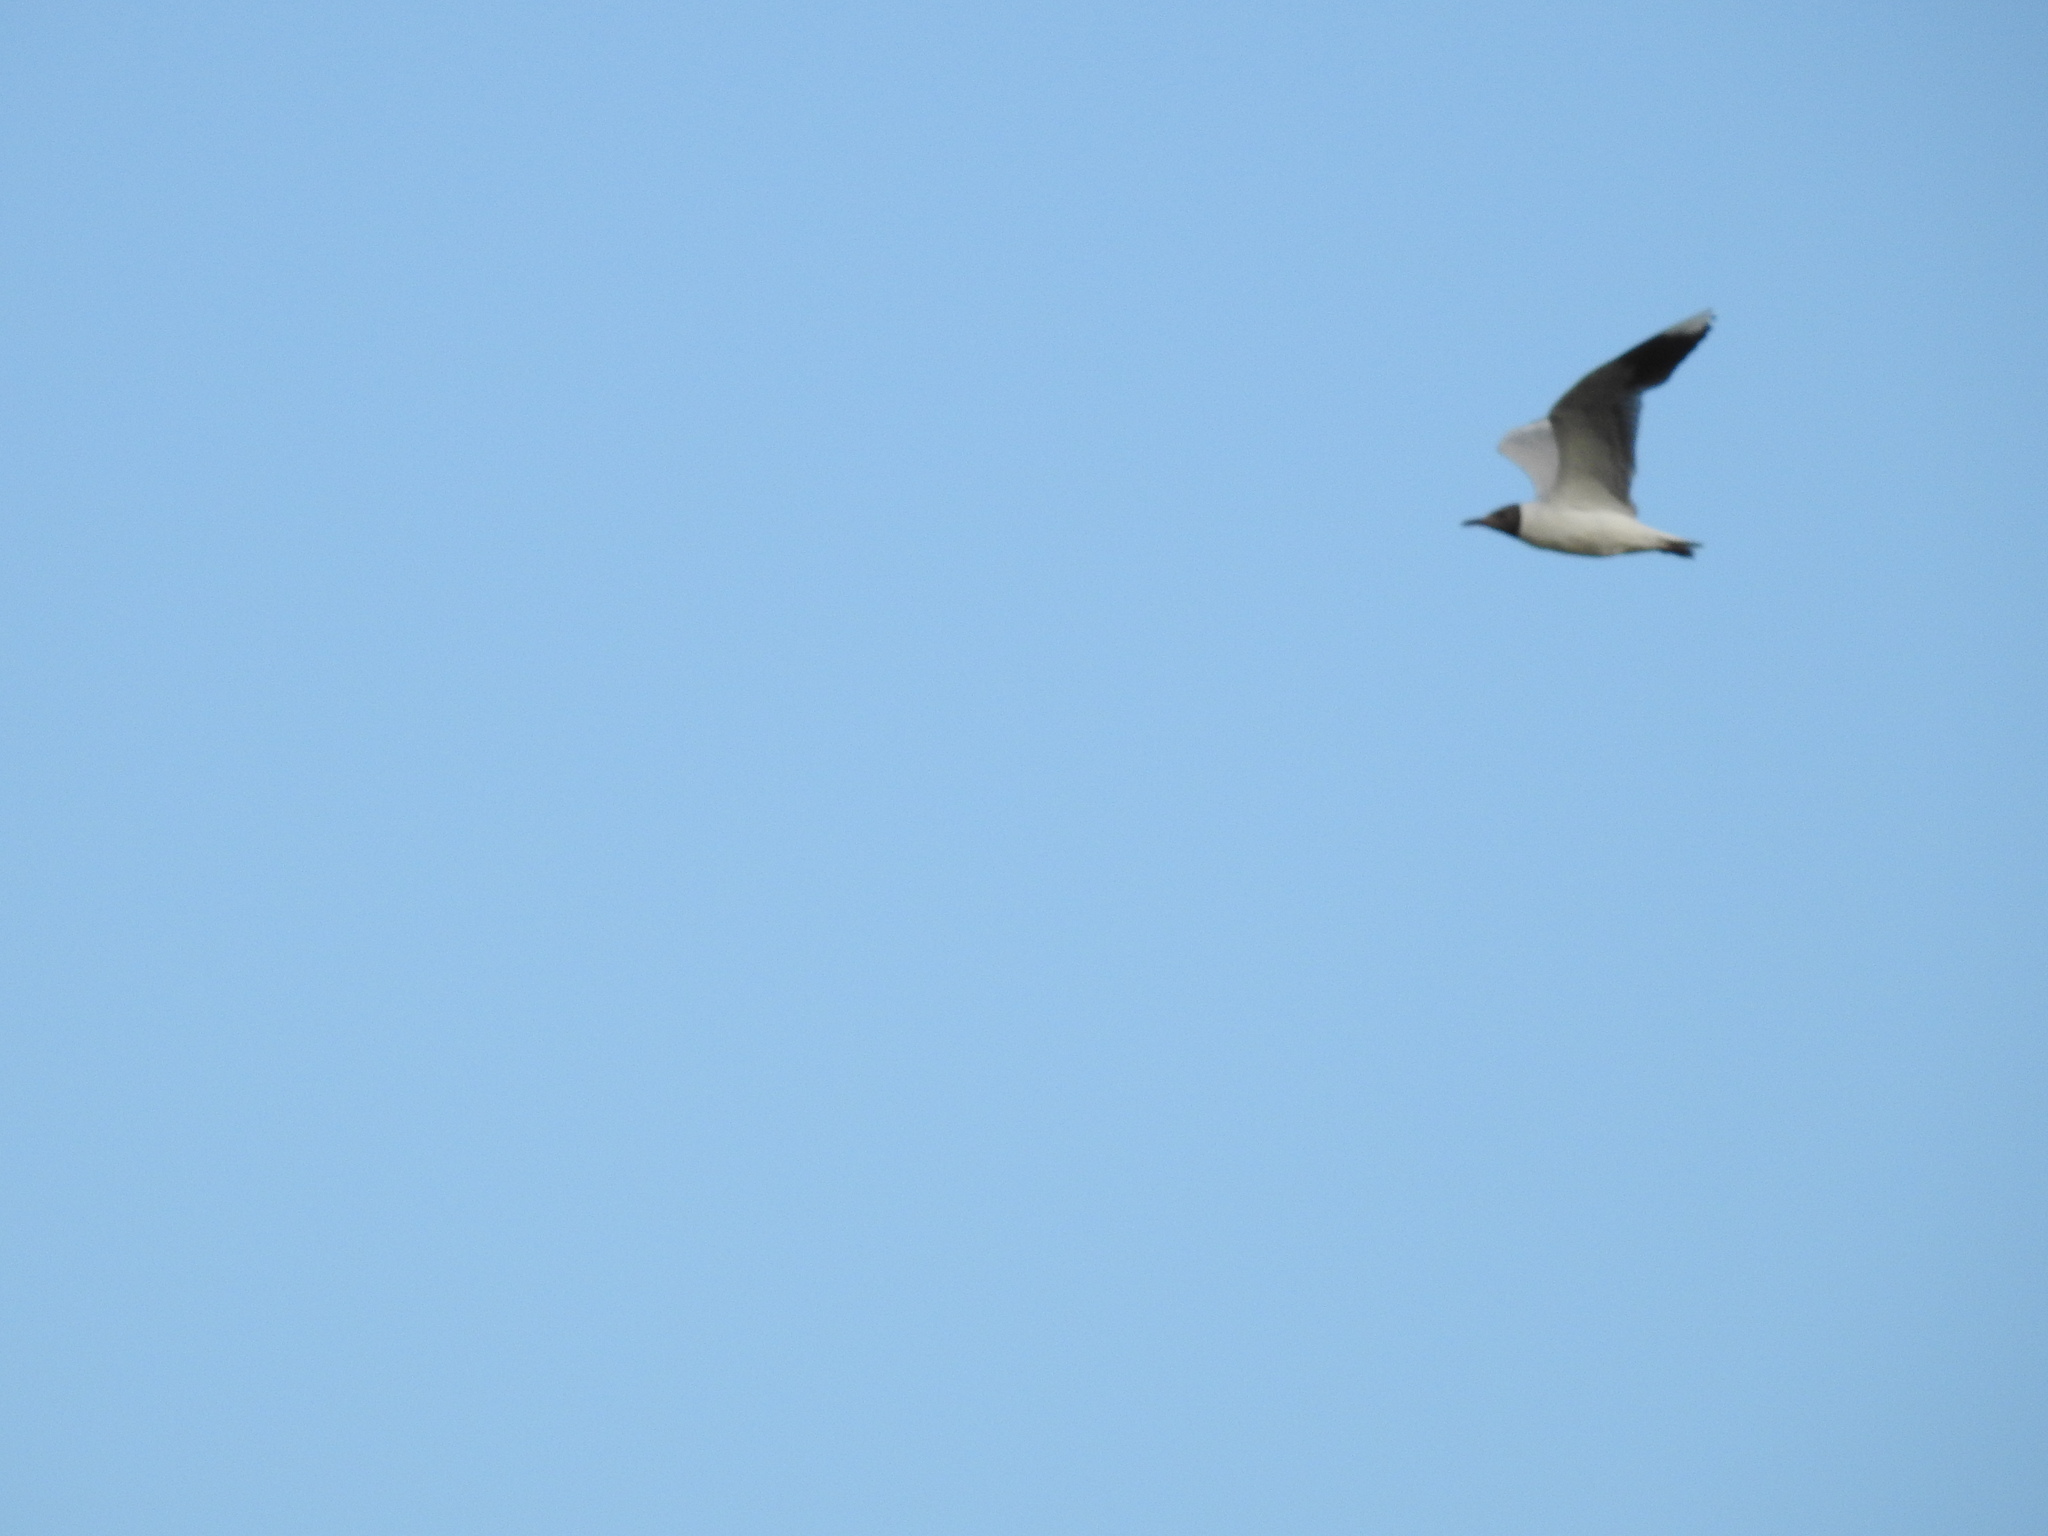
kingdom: Animalia
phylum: Chordata
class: Aves
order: Charadriiformes
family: Laridae
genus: Chroicocephalus
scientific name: Chroicocephalus maculipennis
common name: Brown-hooded gull
